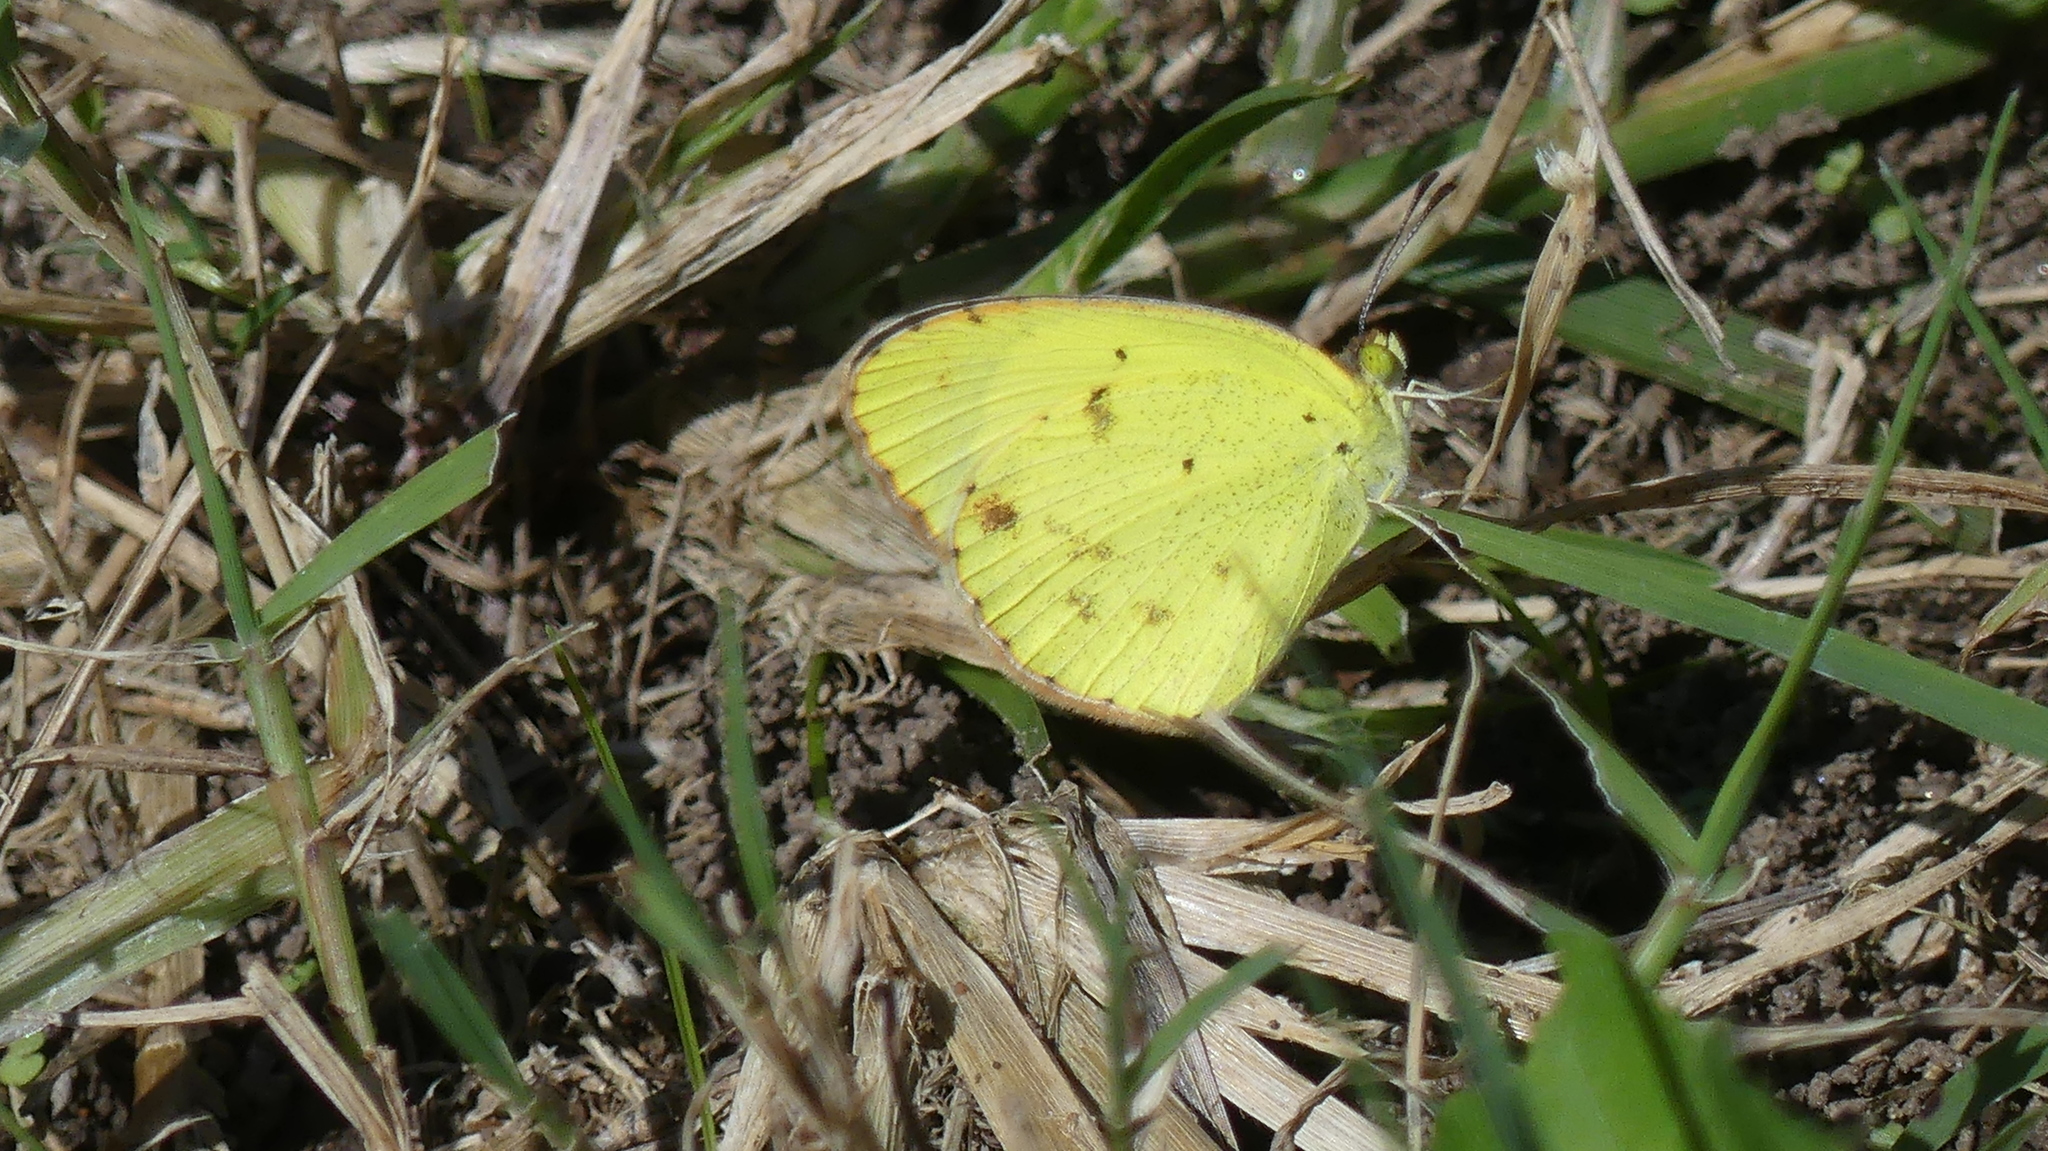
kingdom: Animalia
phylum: Arthropoda
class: Insecta
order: Lepidoptera
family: Pieridae
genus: Pyrisitia
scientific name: Pyrisitia lisa
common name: Little yellow
